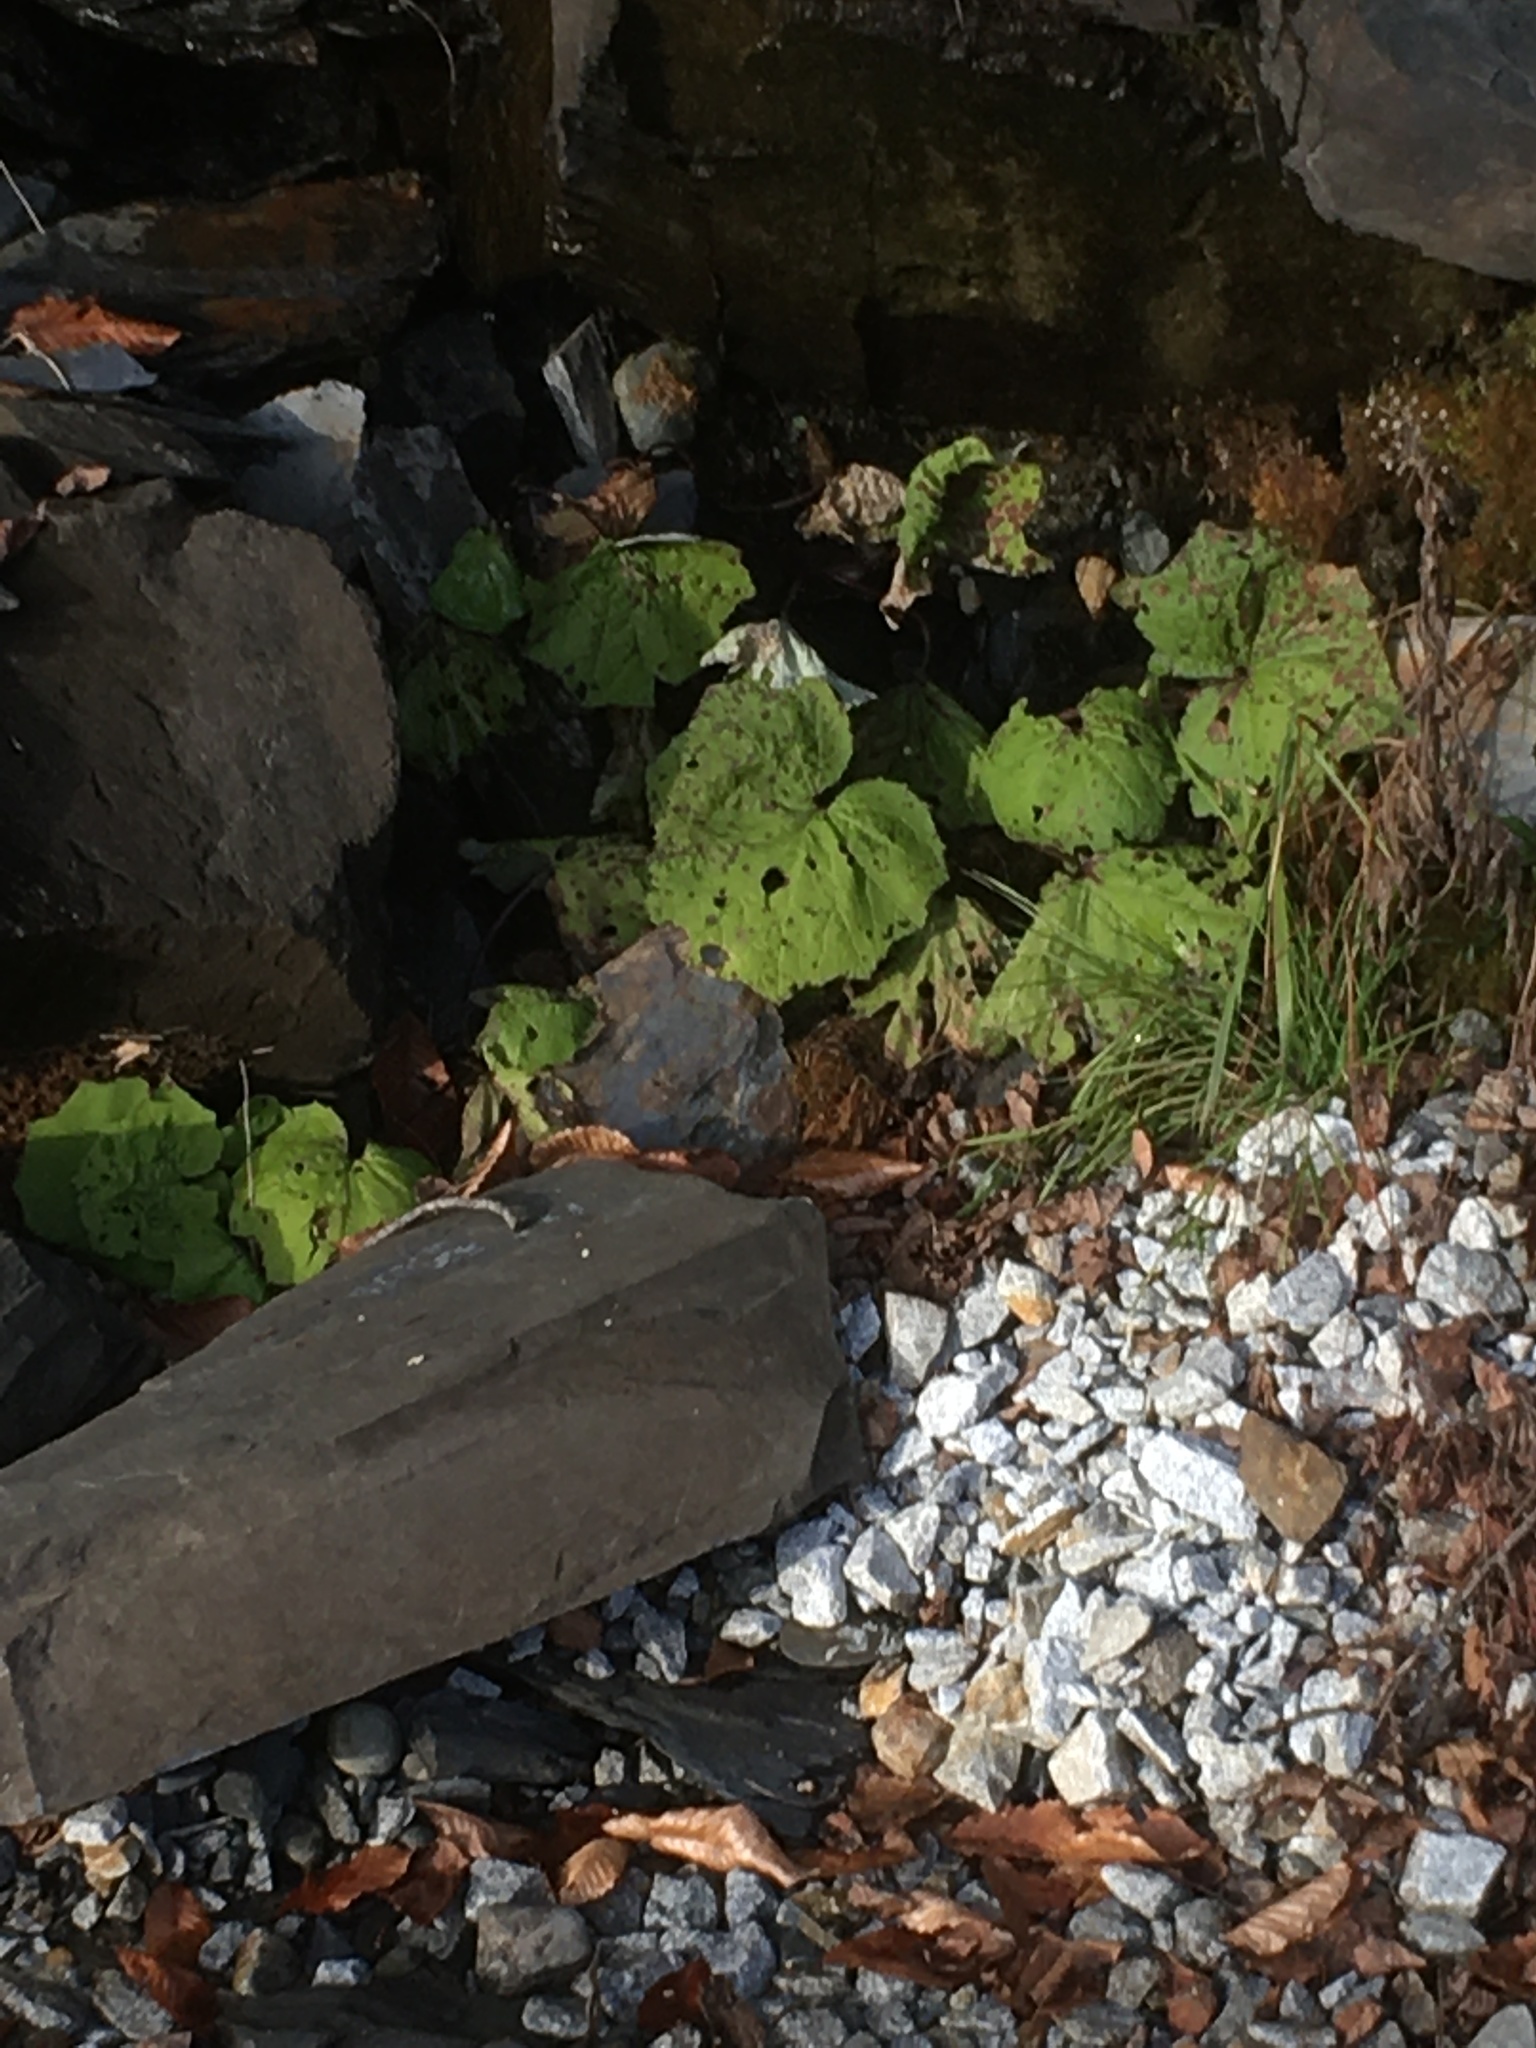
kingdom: Plantae
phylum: Tracheophyta
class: Magnoliopsida
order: Asterales
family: Asteraceae
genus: Tussilago
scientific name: Tussilago farfara
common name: Coltsfoot
